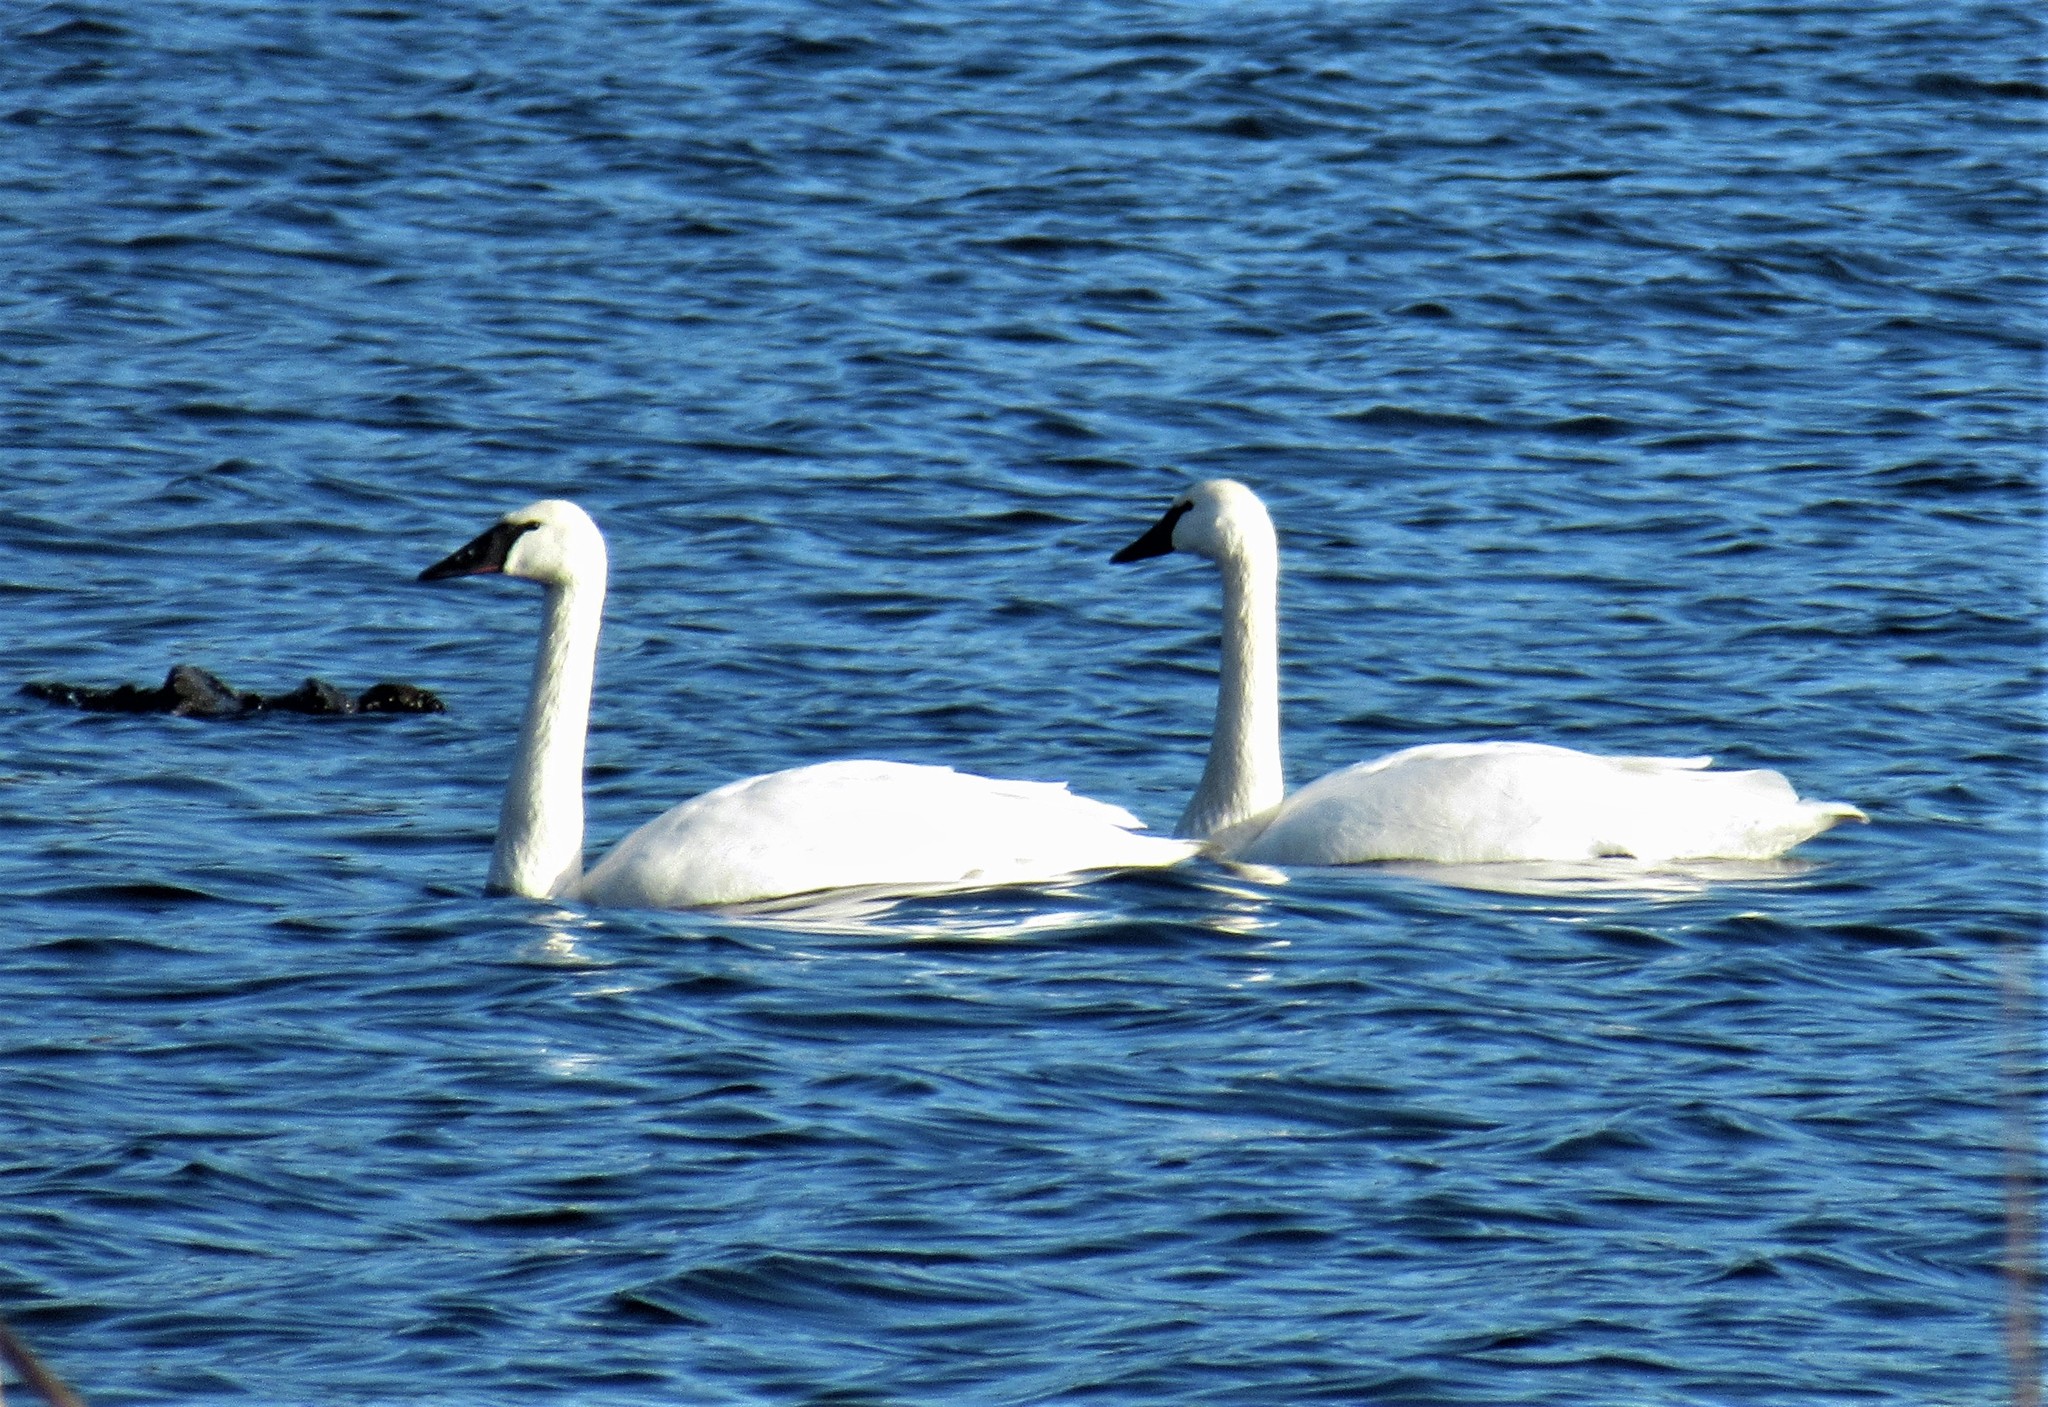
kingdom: Animalia
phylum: Chordata
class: Aves
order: Anseriformes
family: Anatidae
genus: Cygnus
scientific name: Cygnus buccinator
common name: Trumpeter swan
